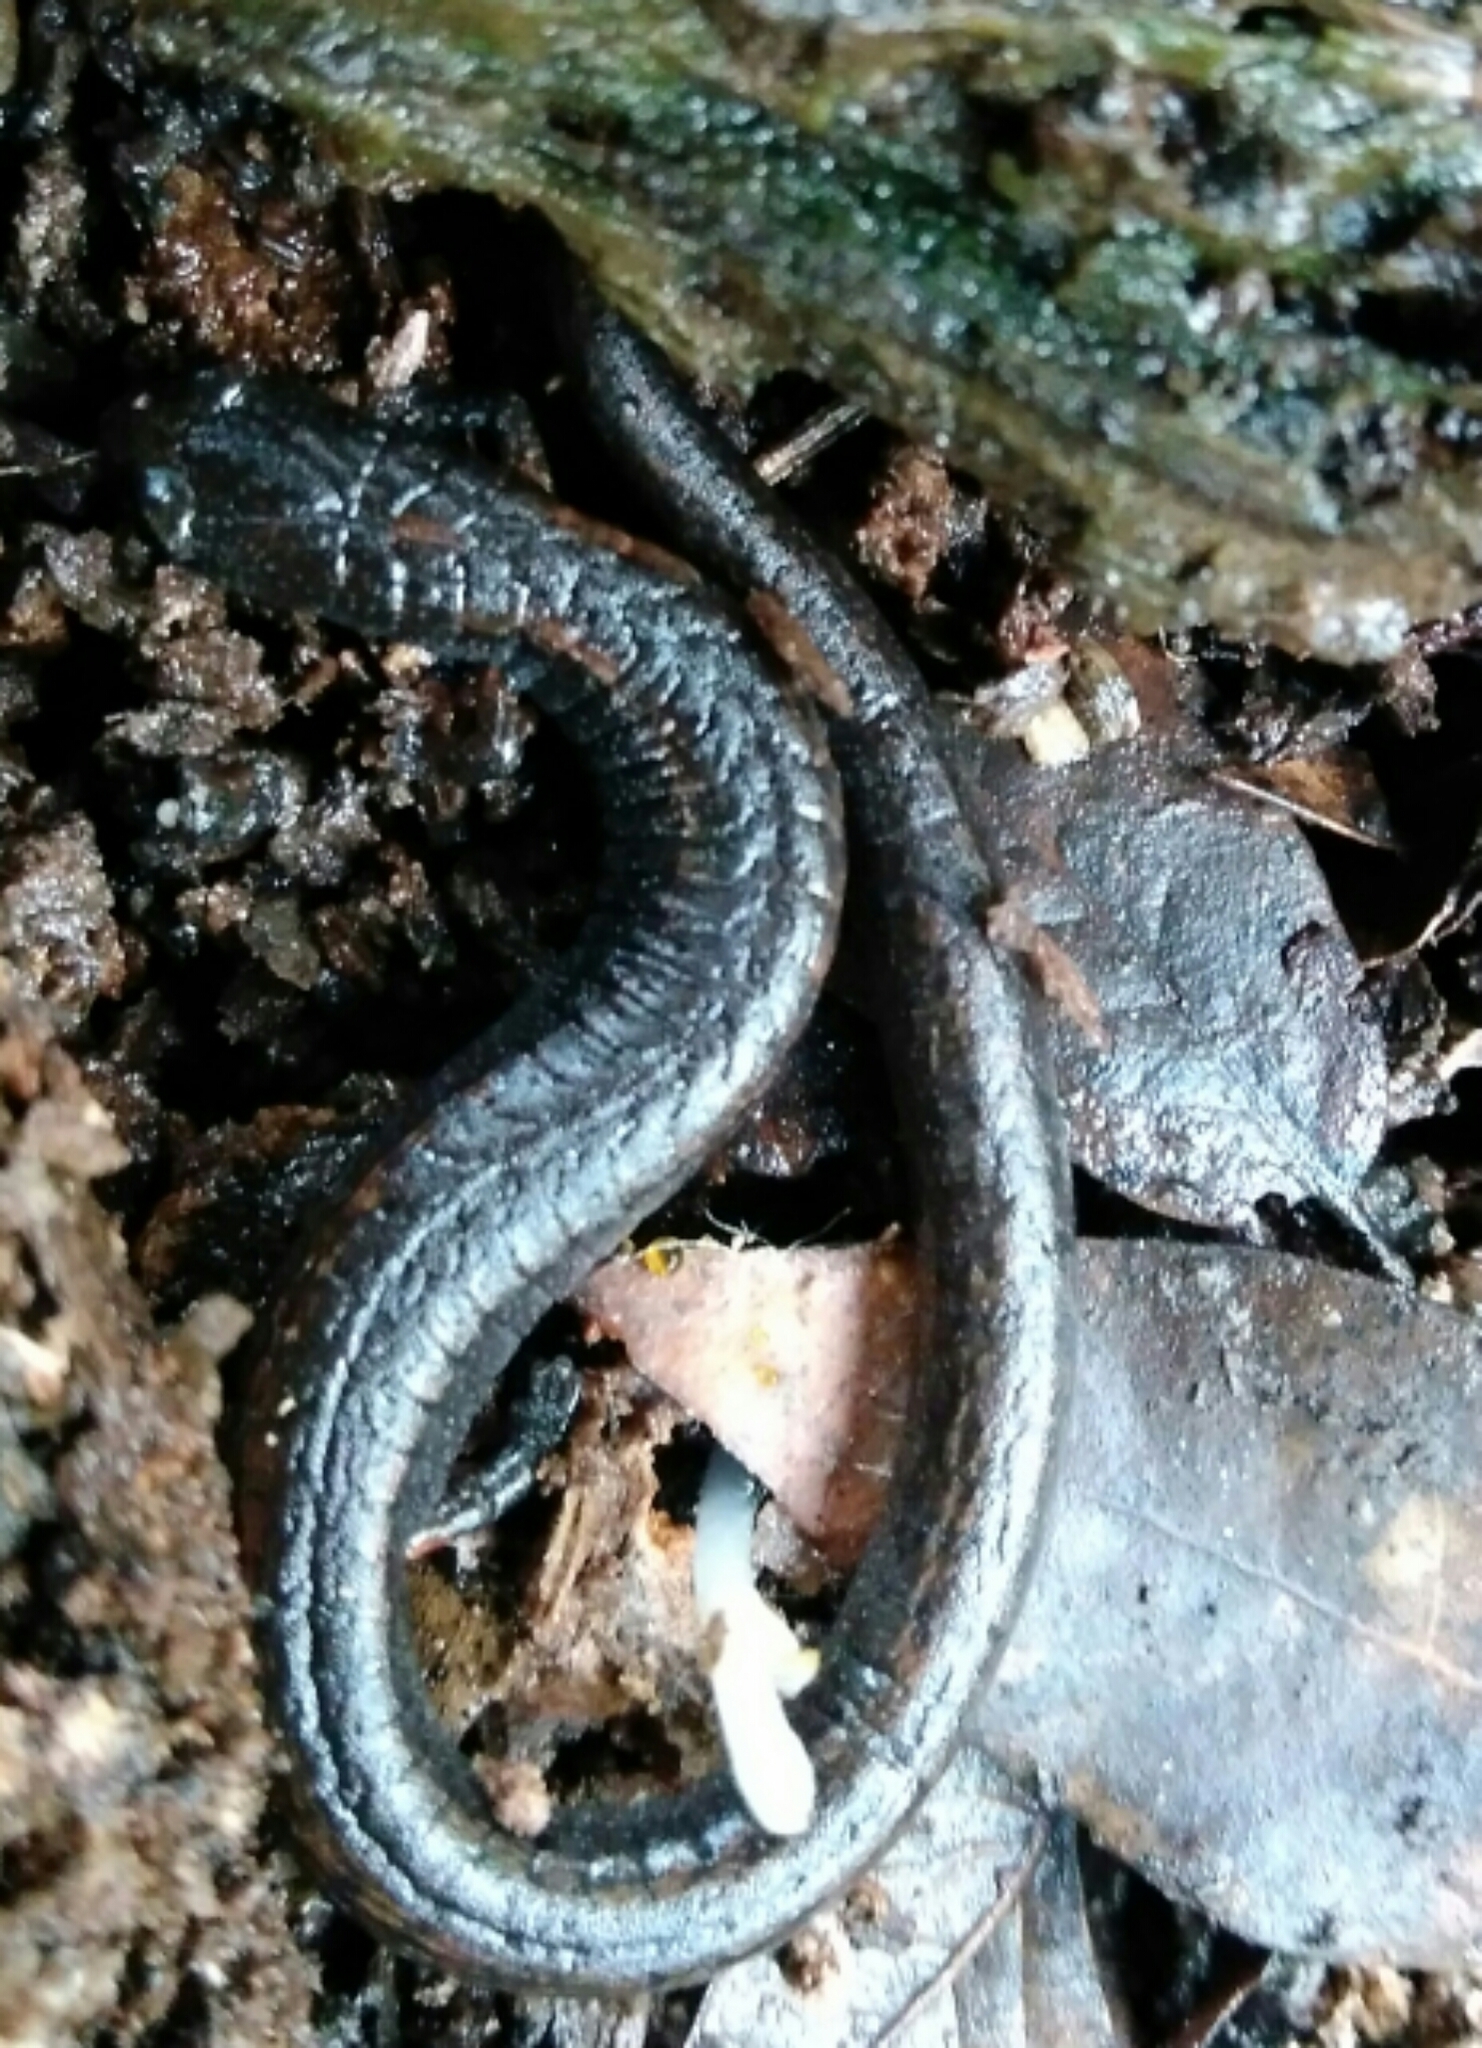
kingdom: Animalia
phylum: Chordata
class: Amphibia
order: Caudata
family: Plethodontidae
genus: Batrachoseps
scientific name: Batrachoseps attenuatus
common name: California slender salamander
